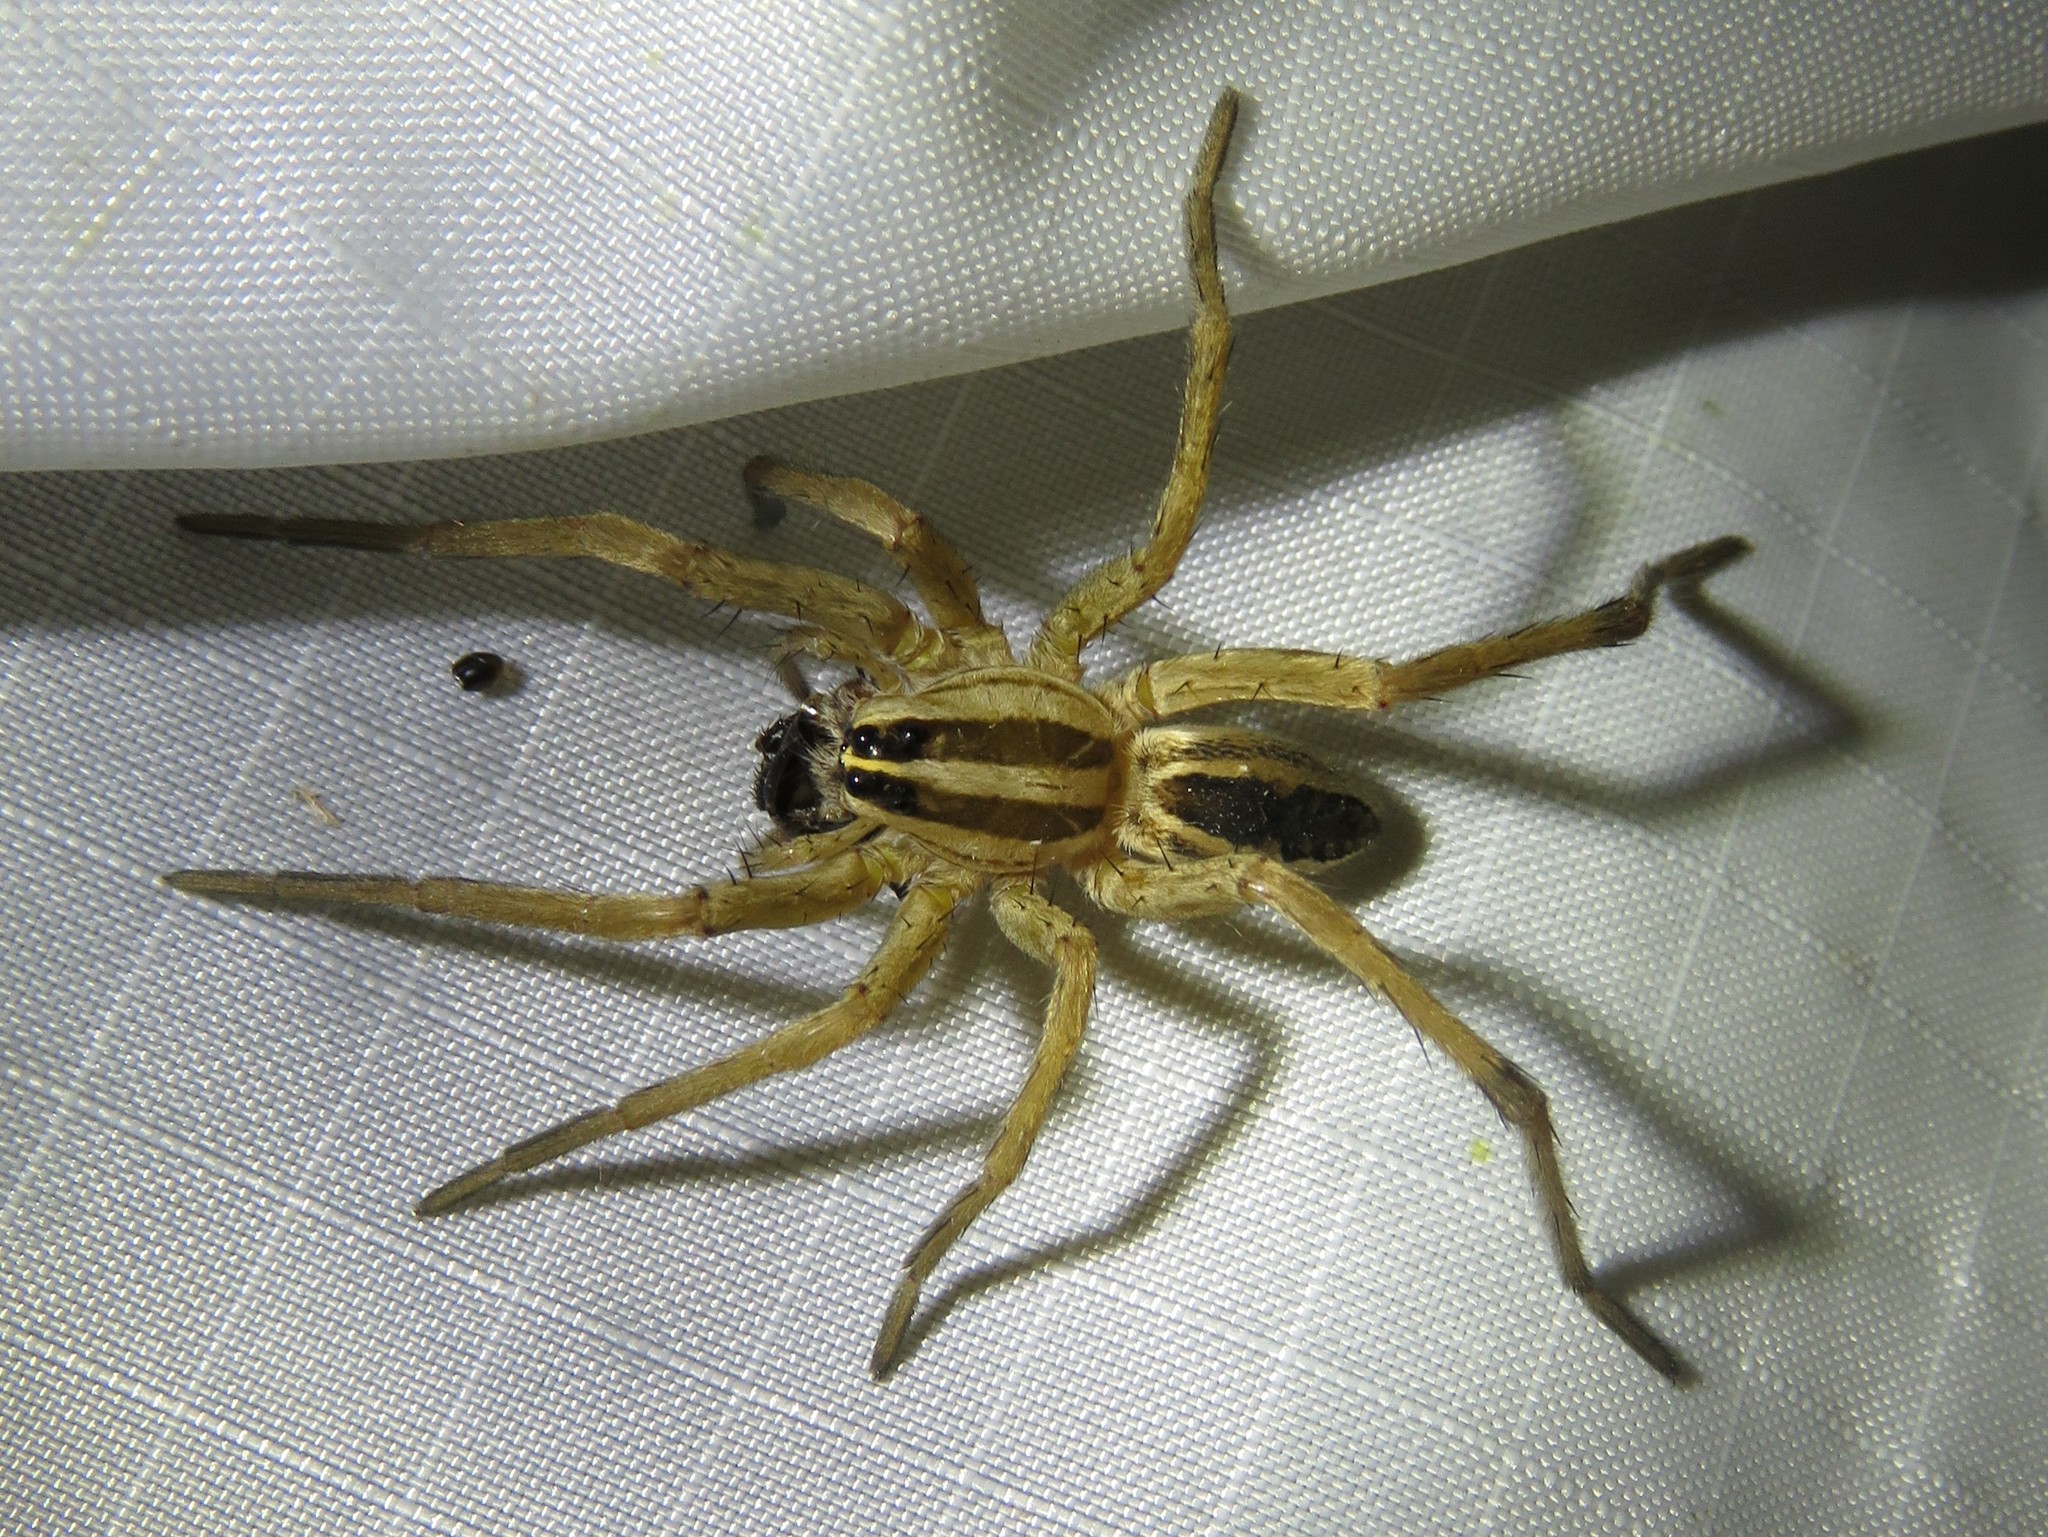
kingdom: Animalia
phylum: Arthropoda
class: Arachnida
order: Araneae
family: Lycosidae
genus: Rabidosa
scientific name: Rabidosa rabida
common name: Rabid wolf spider
